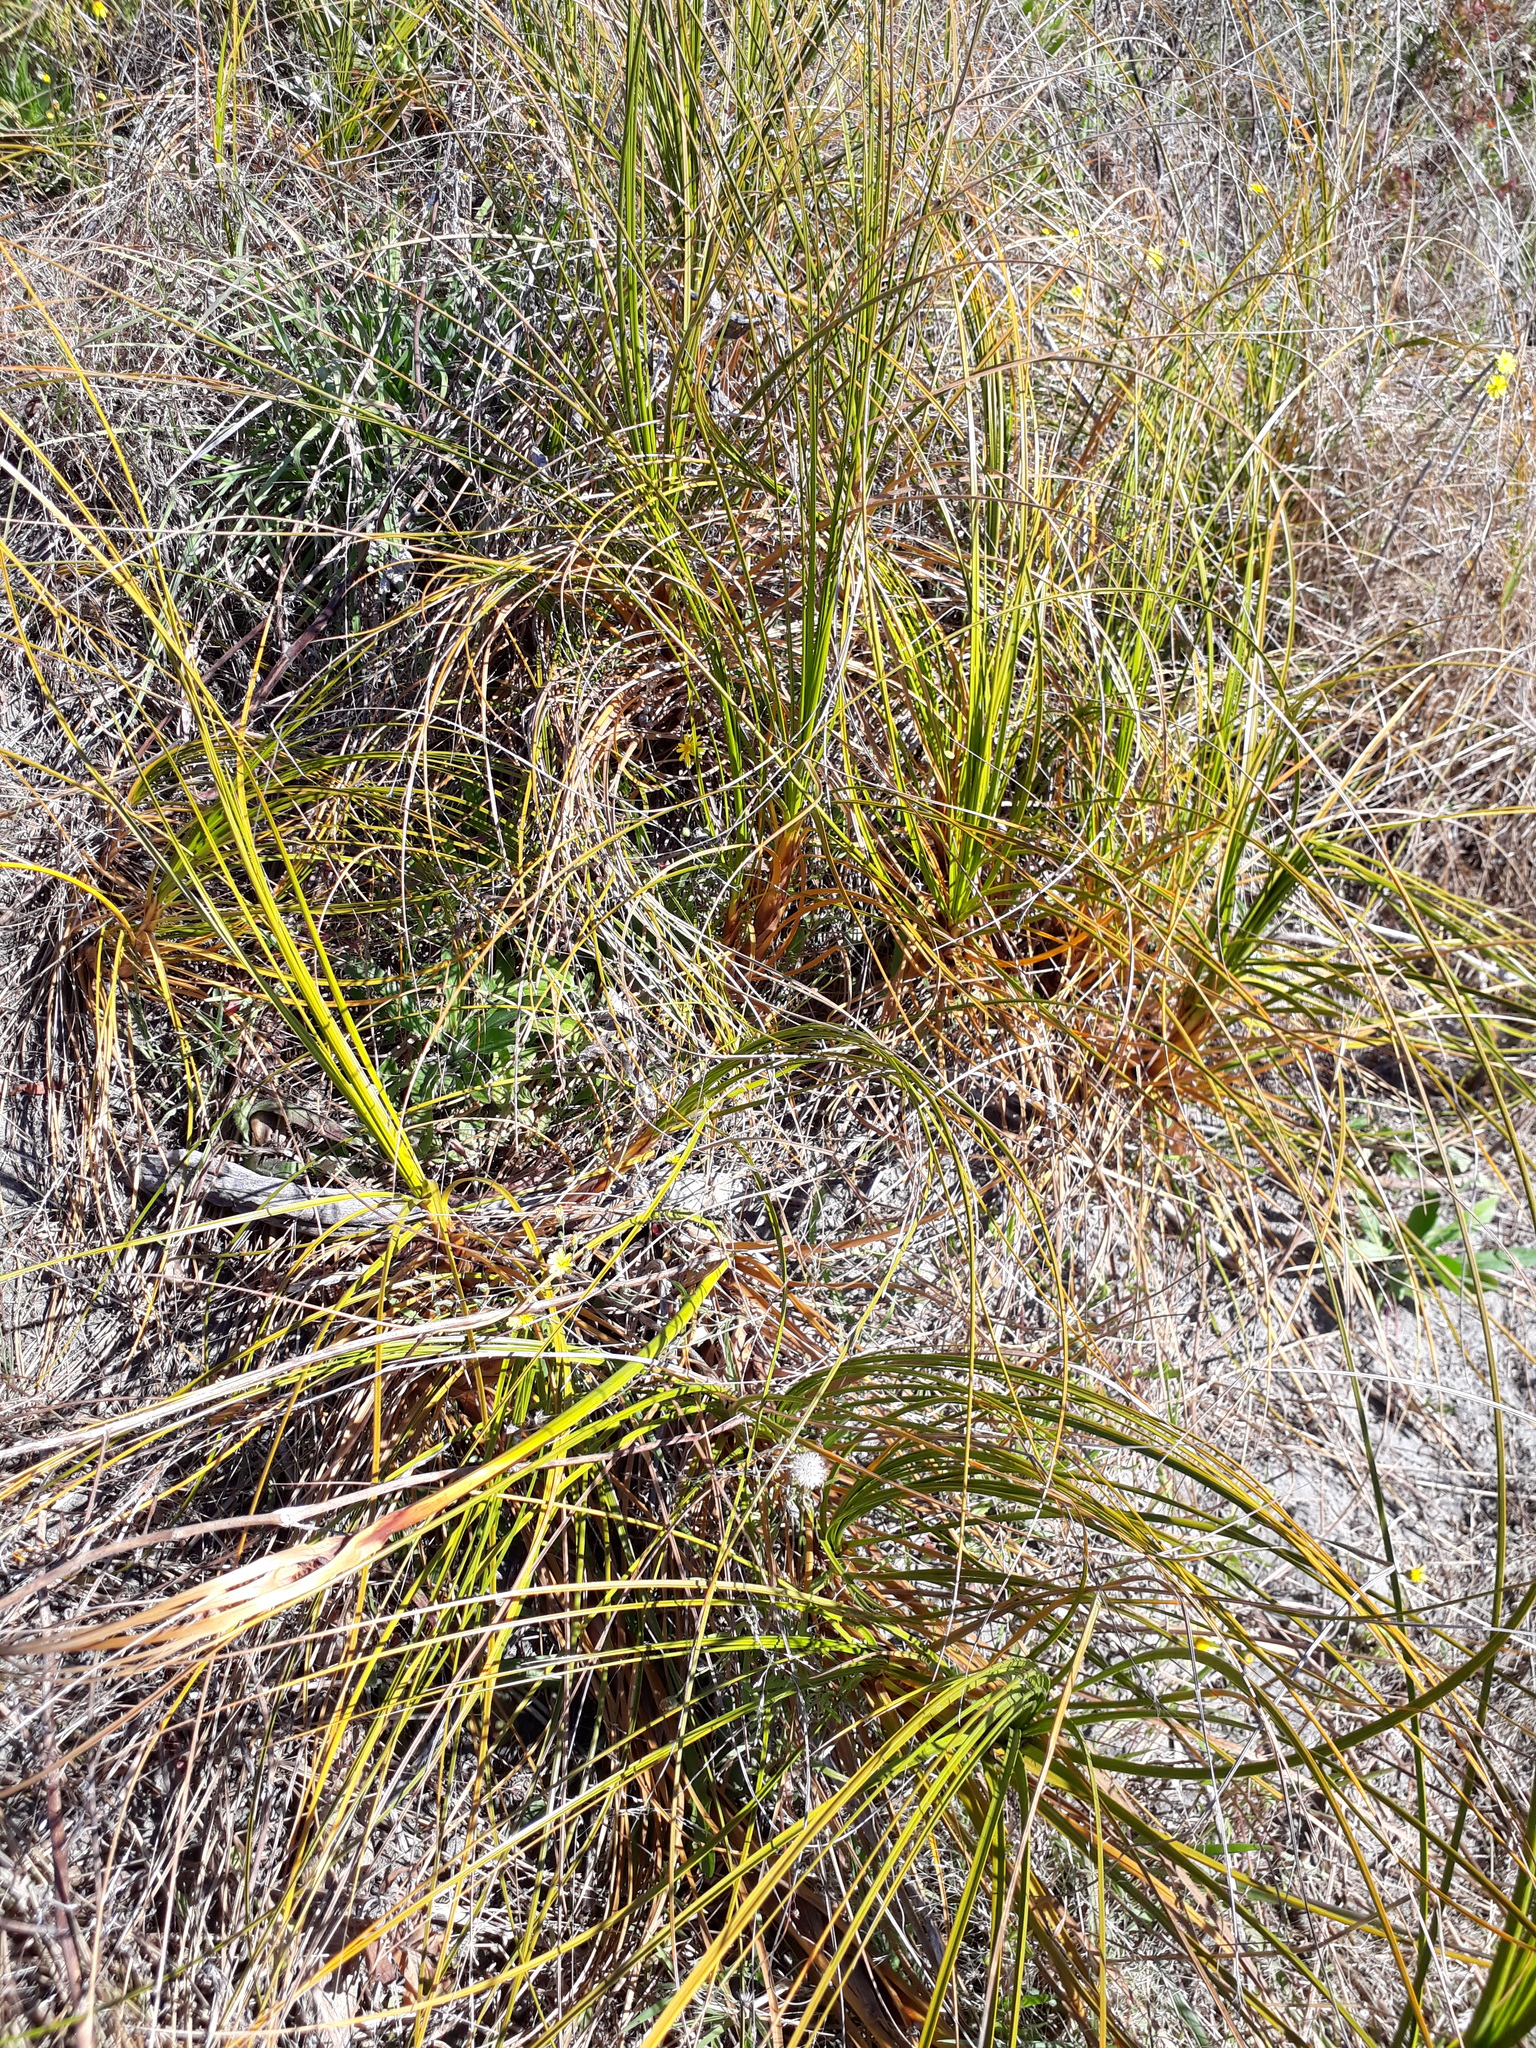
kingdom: Plantae
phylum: Tracheophyta
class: Liliopsida
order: Poales
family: Cyperaceae
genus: Ficinia
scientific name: Ficinia spiralis
